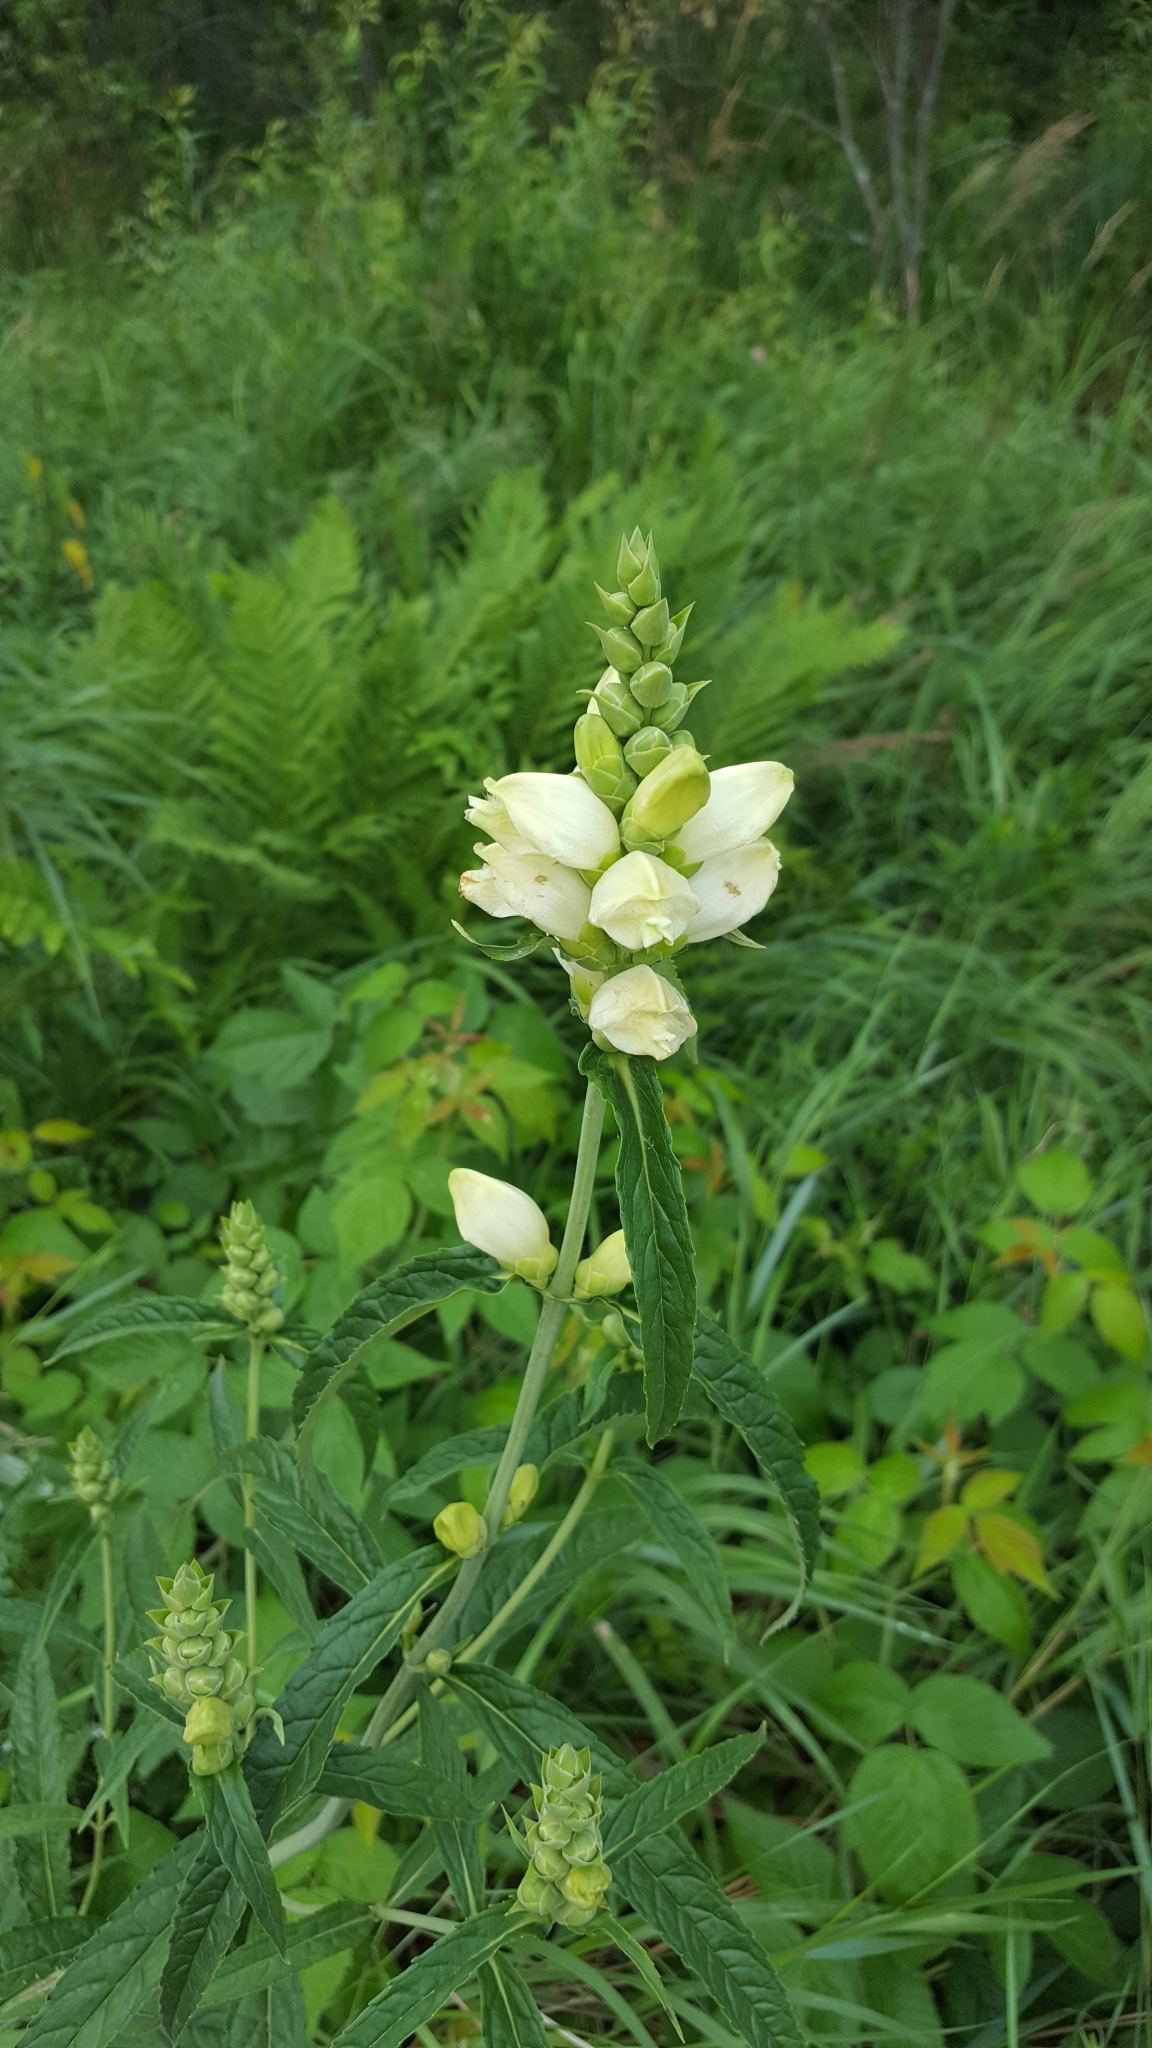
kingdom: Plantae
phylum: Tracheophyta
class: Magnoliopsida
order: Lamiales
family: Plantaginaceae
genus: Chelone
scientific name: Chelone glabra
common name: Snakehead
